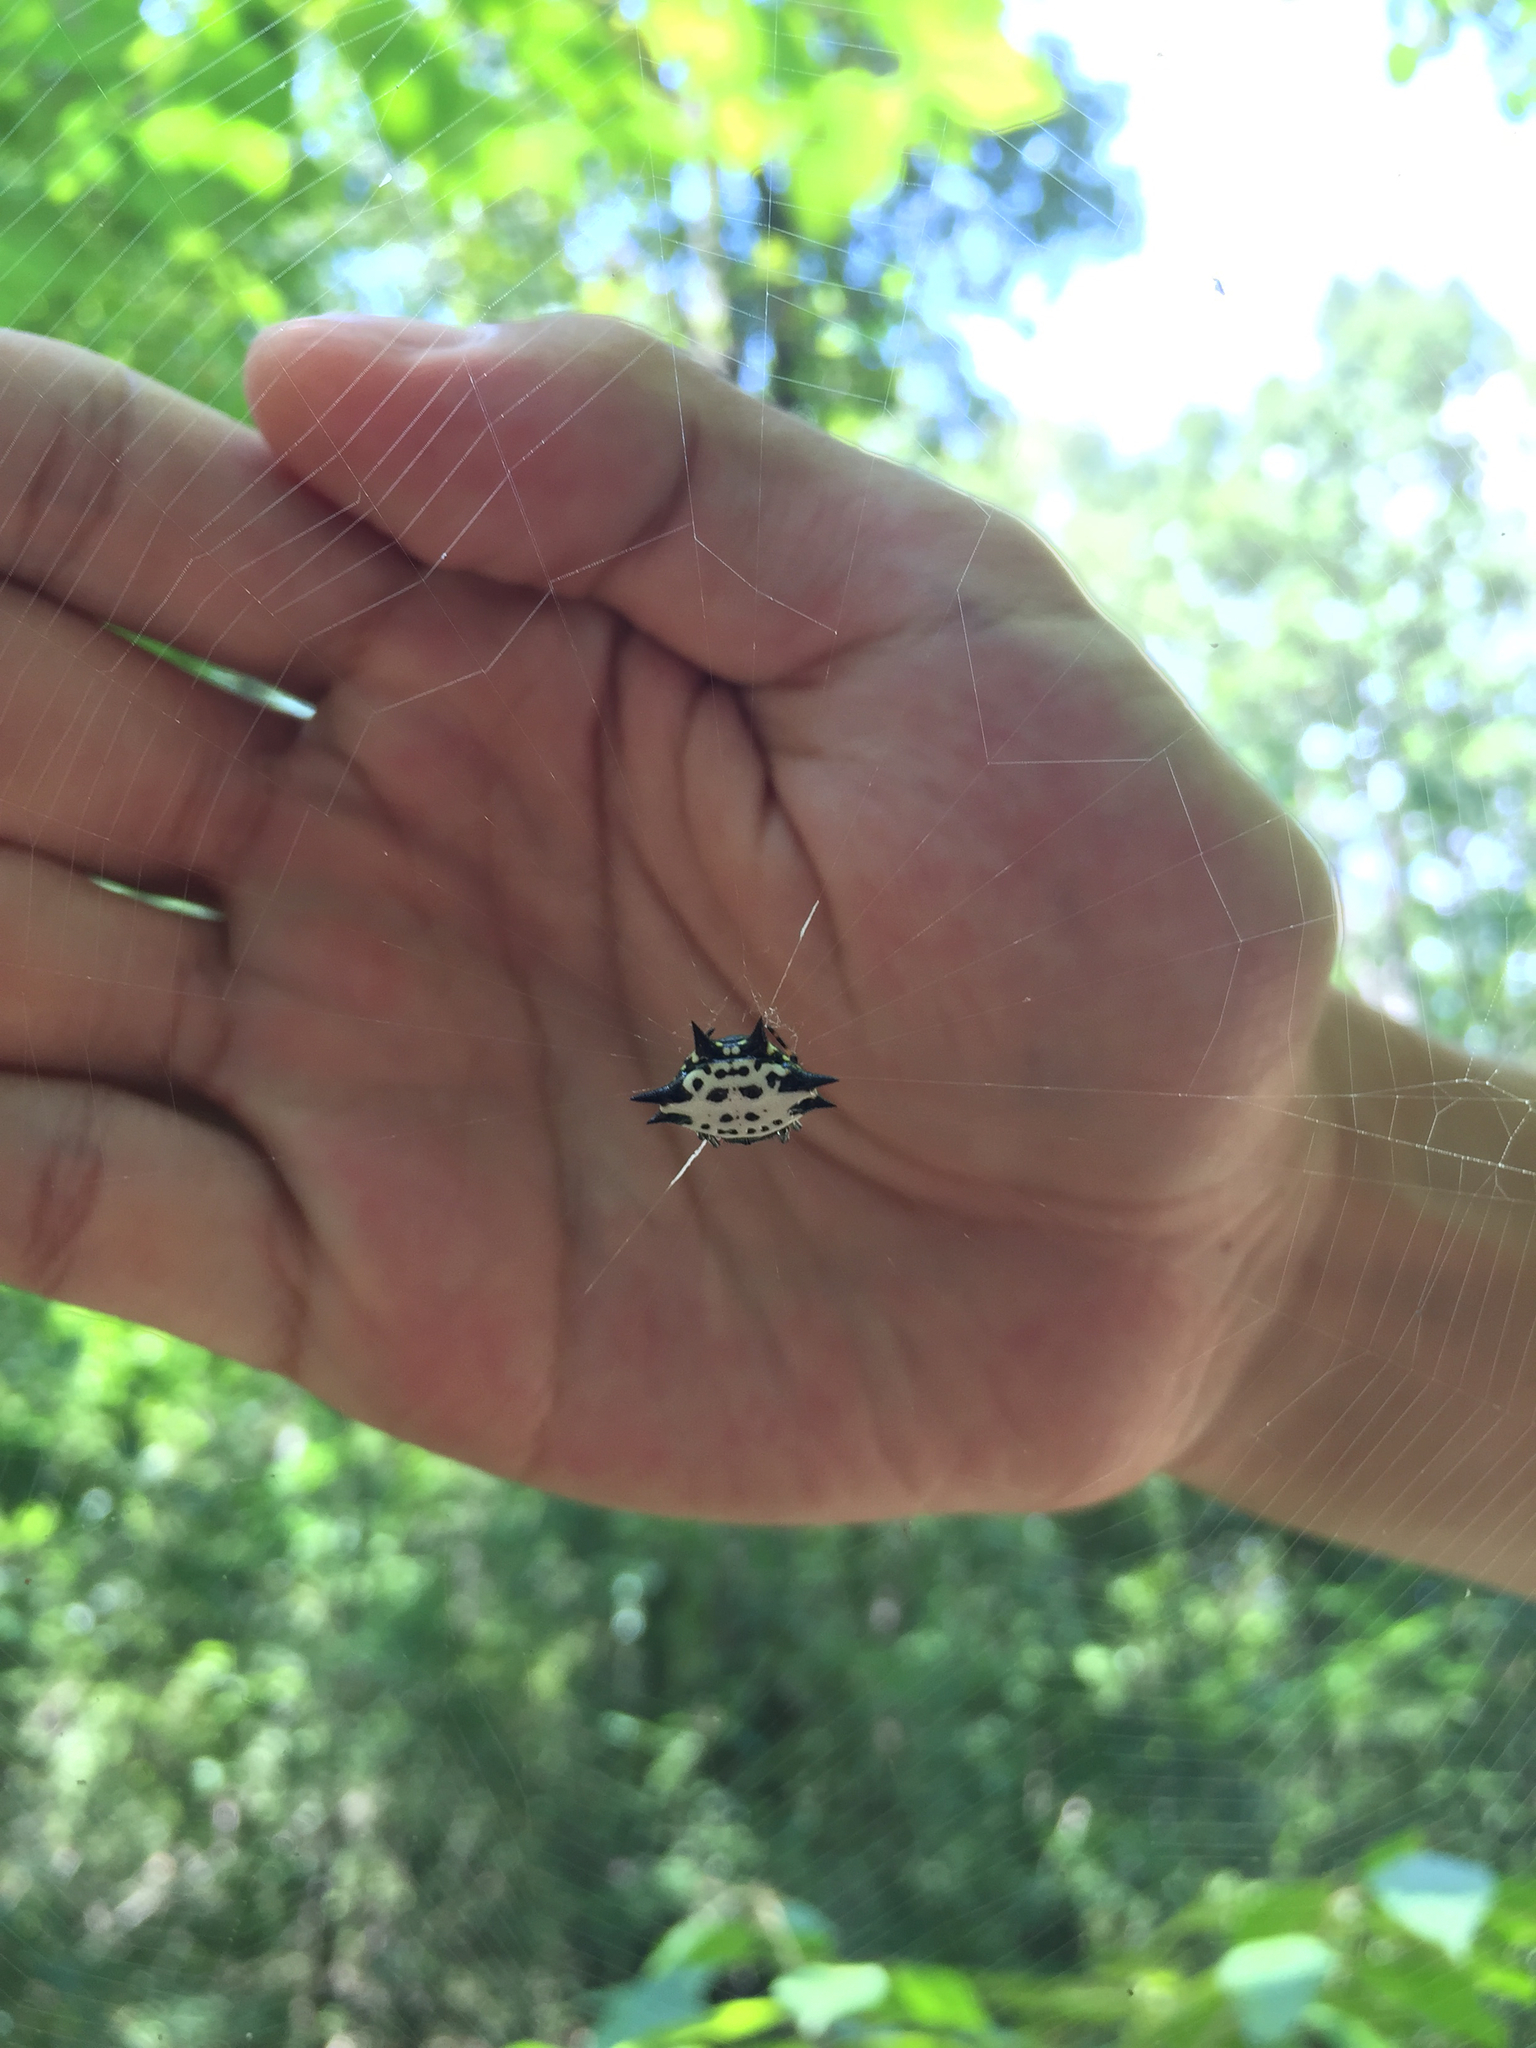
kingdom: Animalia
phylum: Arthropoda
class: Arachnida
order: Araneae
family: Araneidae
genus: Gasteracantha
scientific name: Gasteracantha cancriformis
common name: Orb weavers
